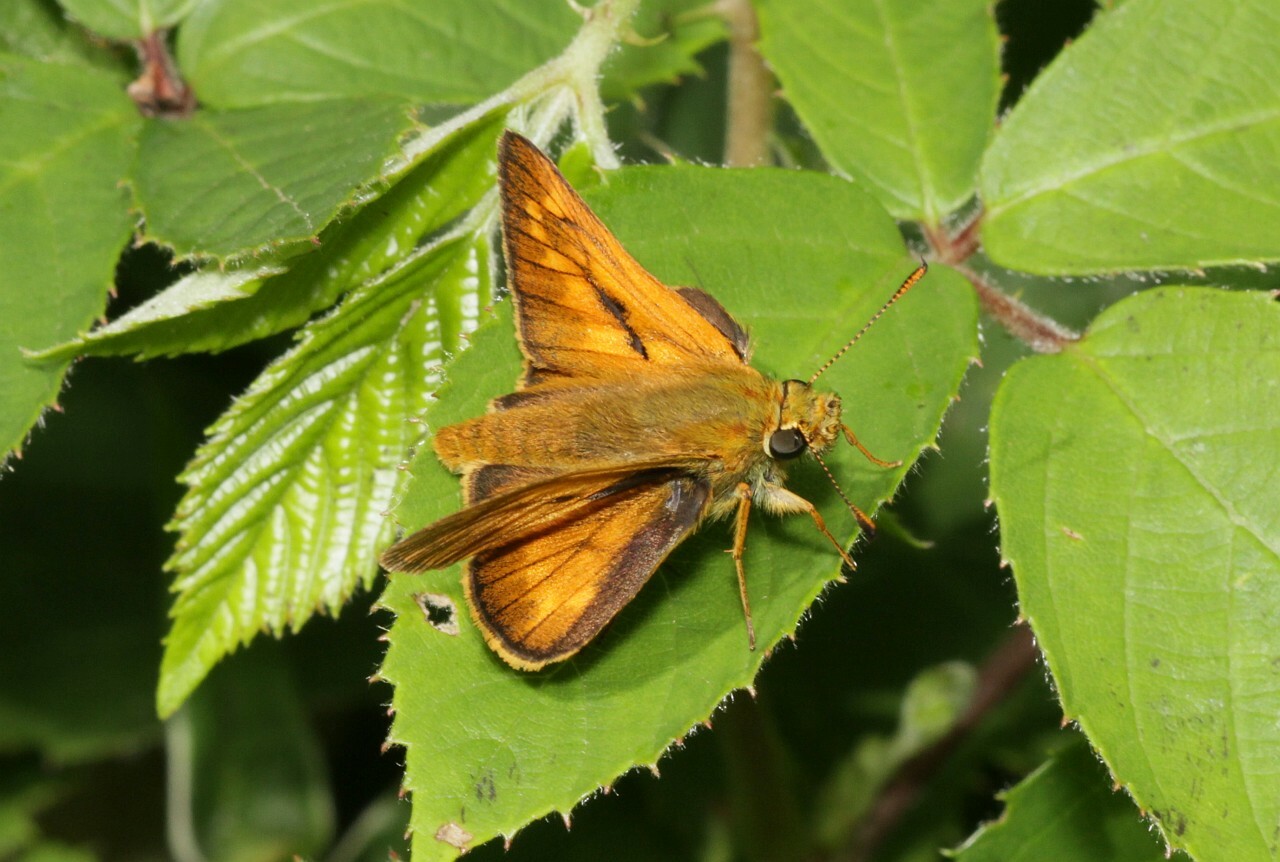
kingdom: Animalia
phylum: Arthropoda
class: Insecta
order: Lepidoptera
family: Hesperiidae
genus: Ochlodes
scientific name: Ochlodes venata
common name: Large skipper
